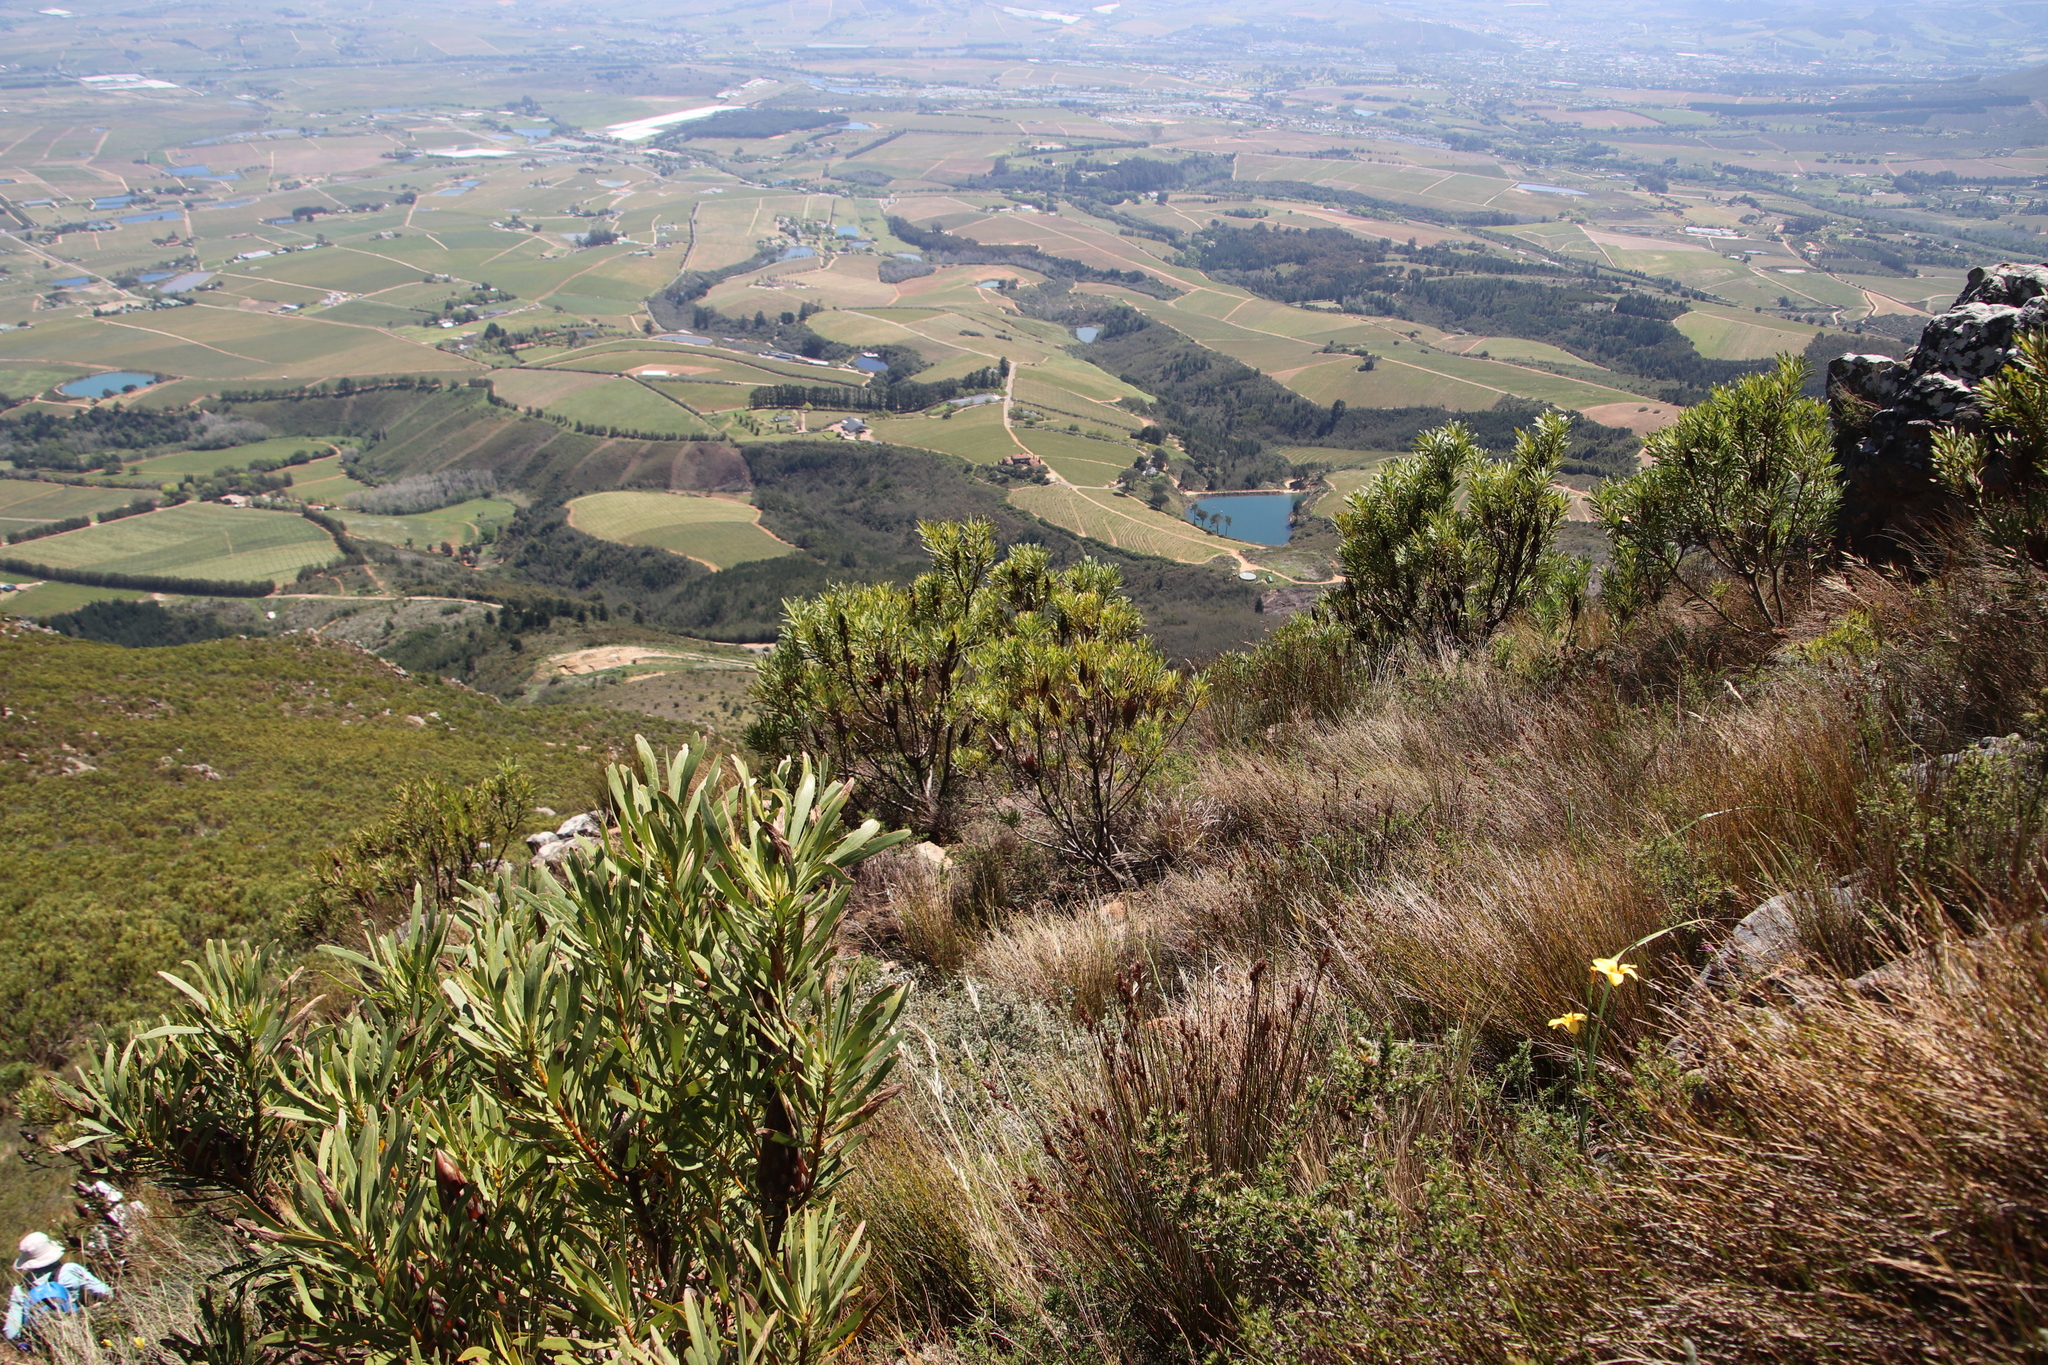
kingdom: Plantae
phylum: Tracheophyta
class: Magnoliopsida
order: Proteales
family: Proteaceae
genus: Protea
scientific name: Protea repens
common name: Sugarbush
